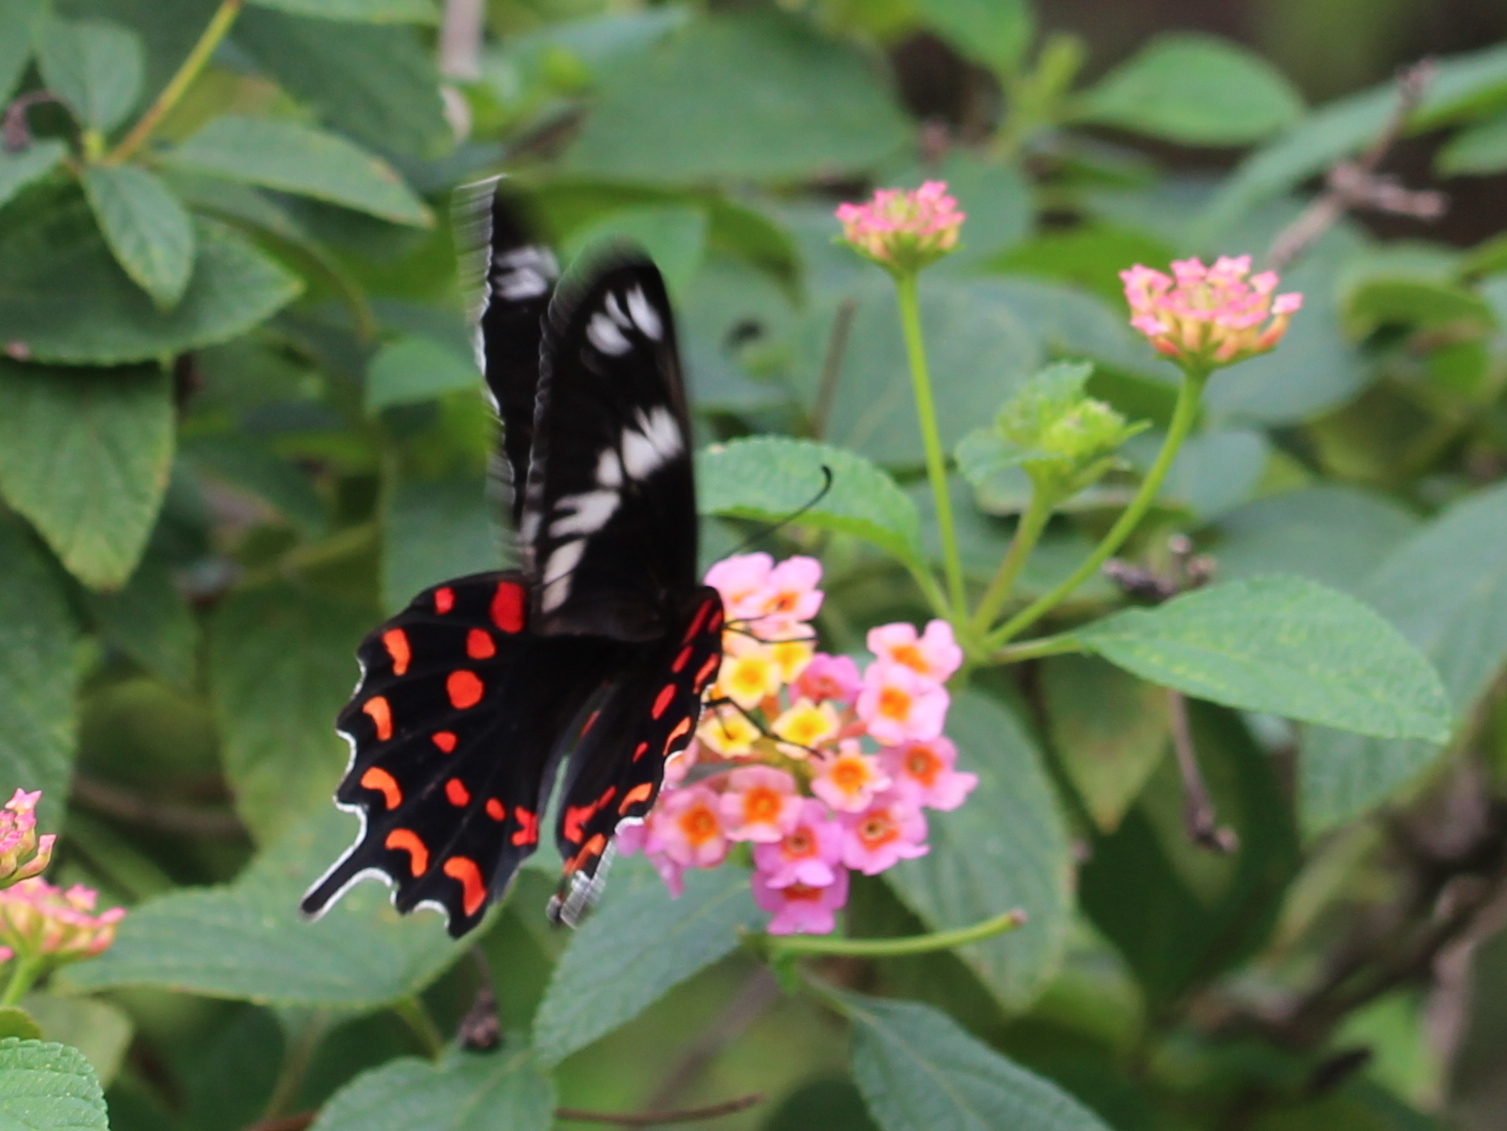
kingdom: Animalia
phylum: Arthropoda
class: Insecta
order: Lepidoptera
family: Papilionidae
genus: Pachliopta
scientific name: Pachliopta hector
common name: Crimson rose
